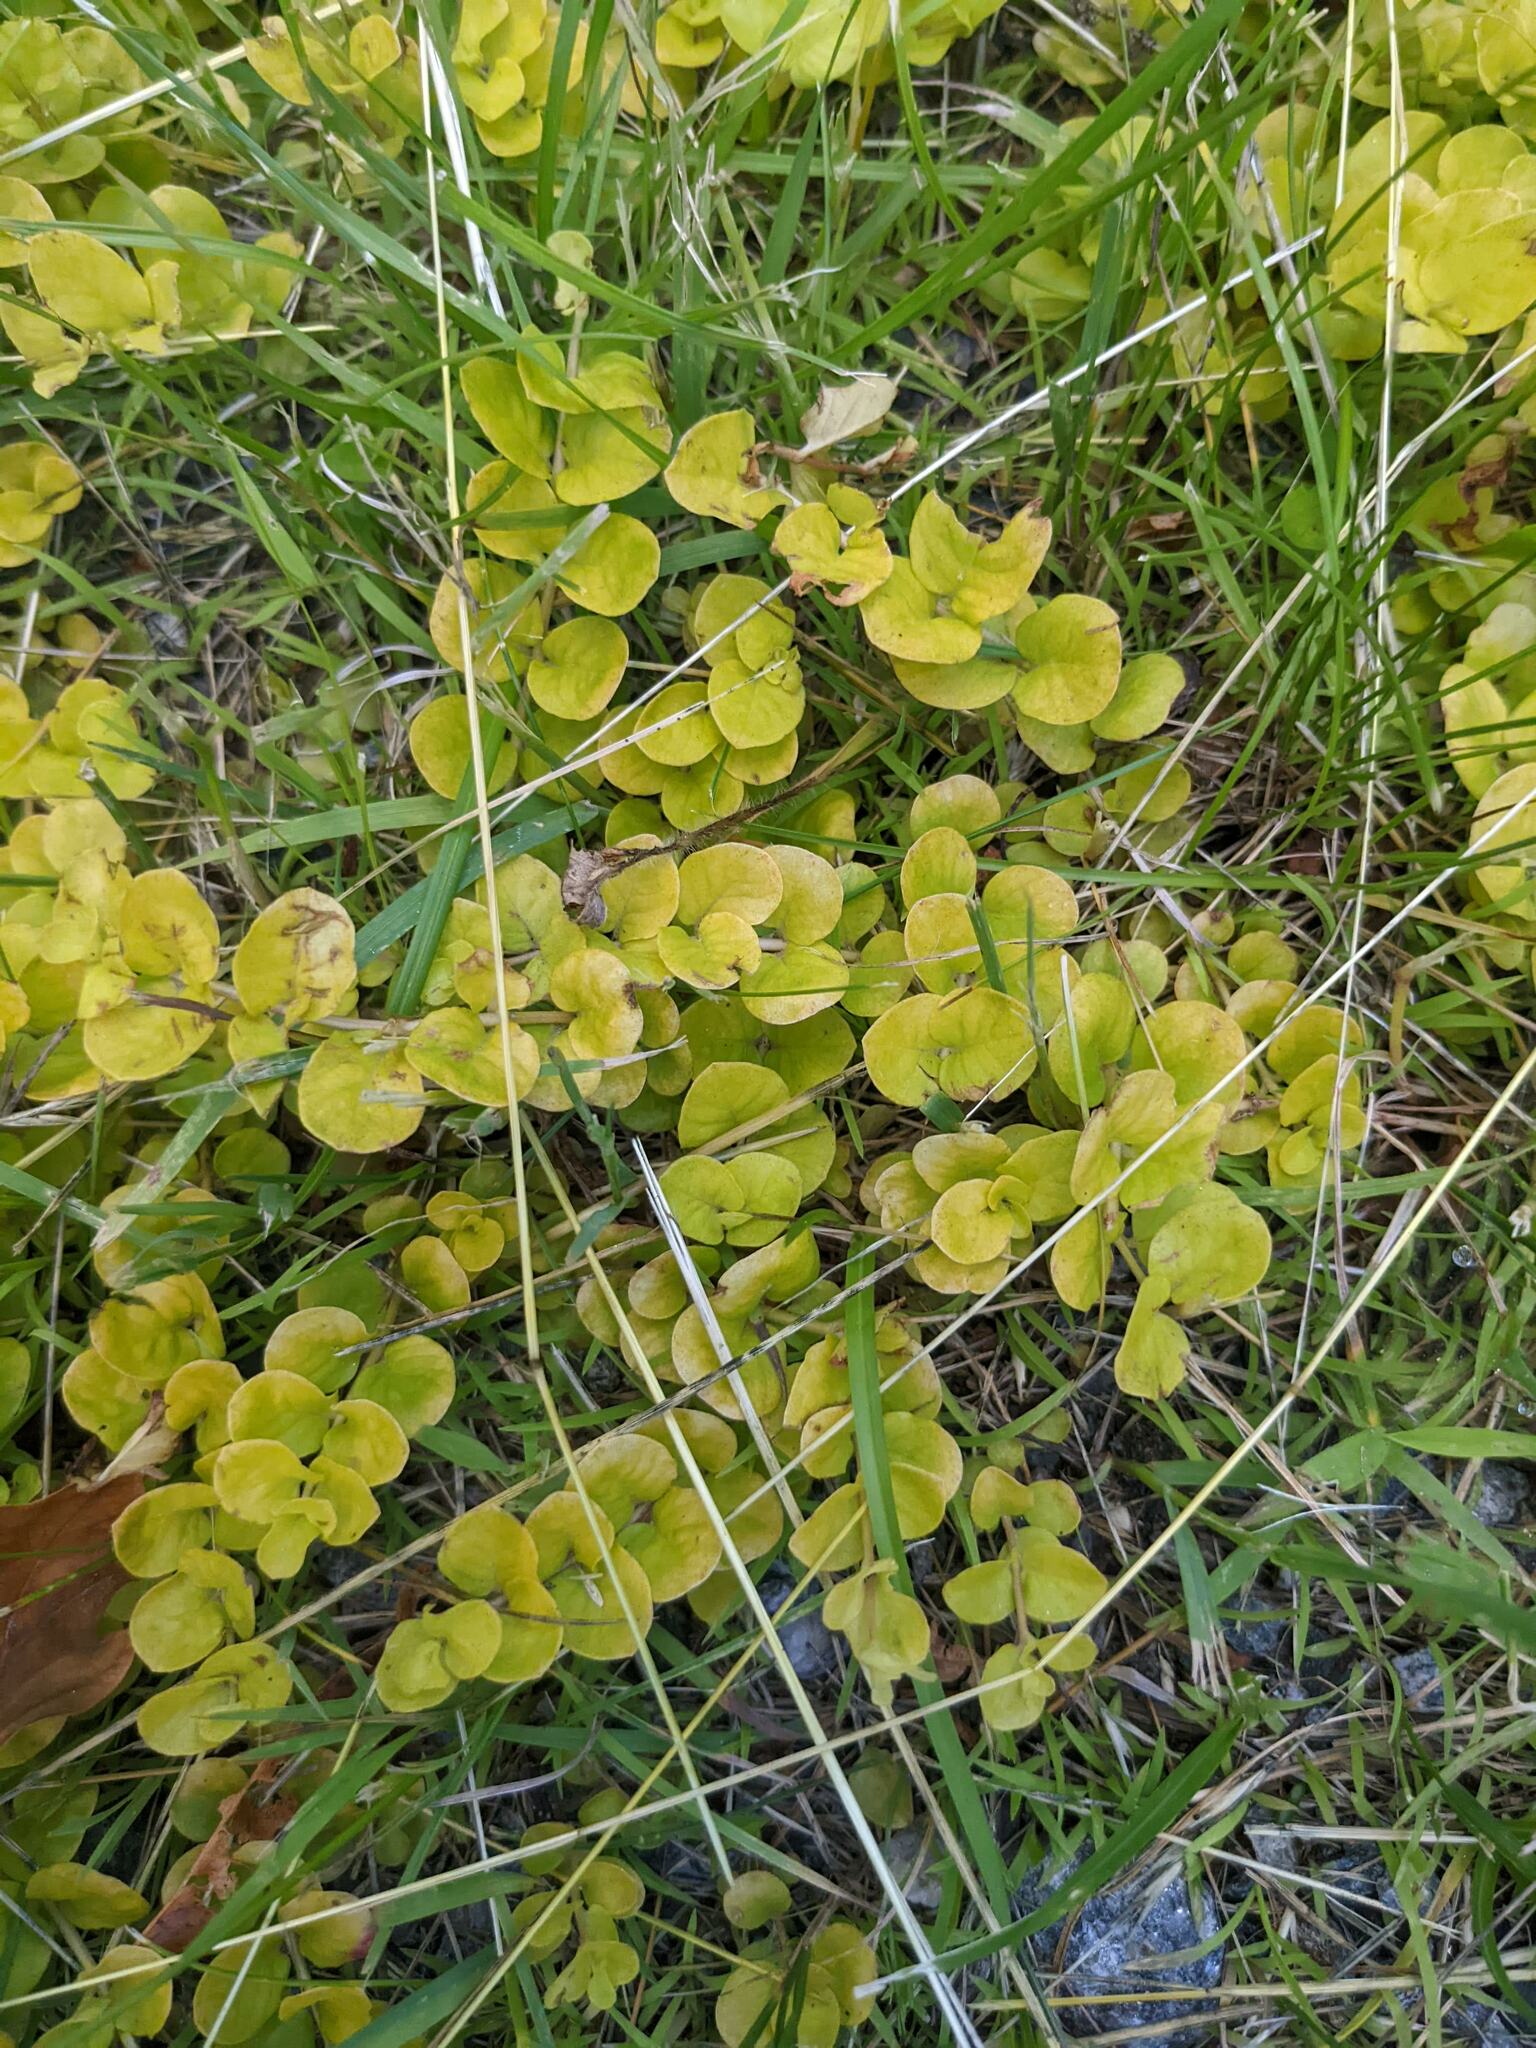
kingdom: Plantae
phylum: Tracheophyta
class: Magnoliopsida
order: Ericales
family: Primulaceae
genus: Lysimachia
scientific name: Lysimachia nummularia
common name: Moneywort
